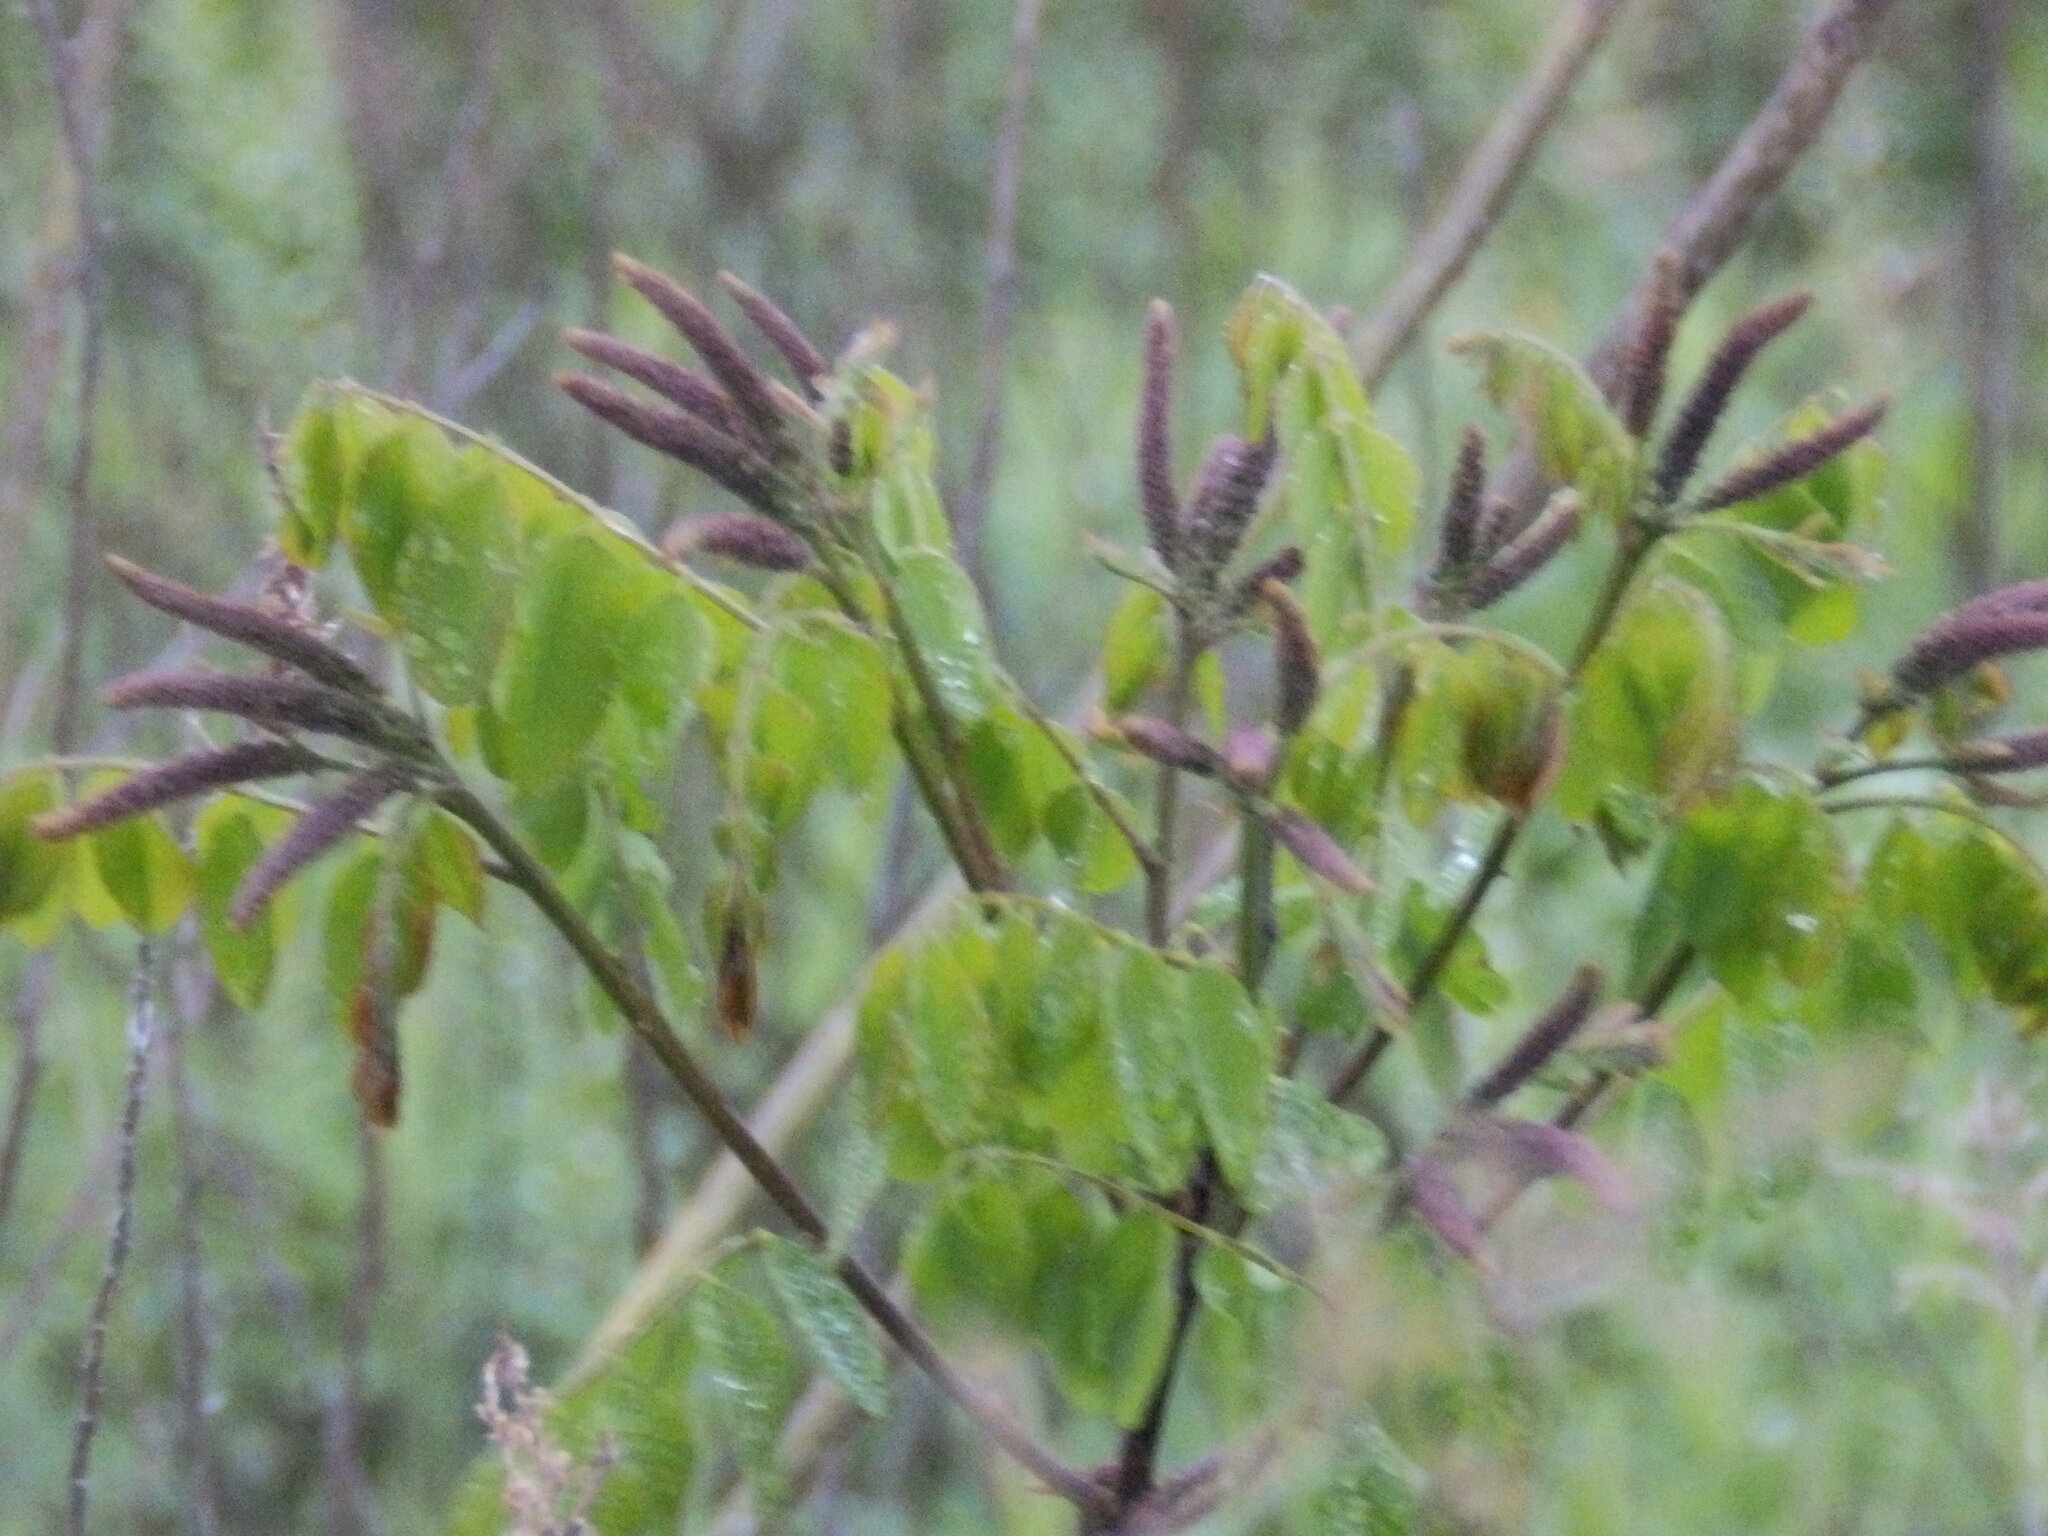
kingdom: Plantae
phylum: Tracheophyta
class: Magnoliopsida
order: Fabales
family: Fabaceae
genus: Amorpha
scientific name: Amorpha fruticosa
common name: False indigo
